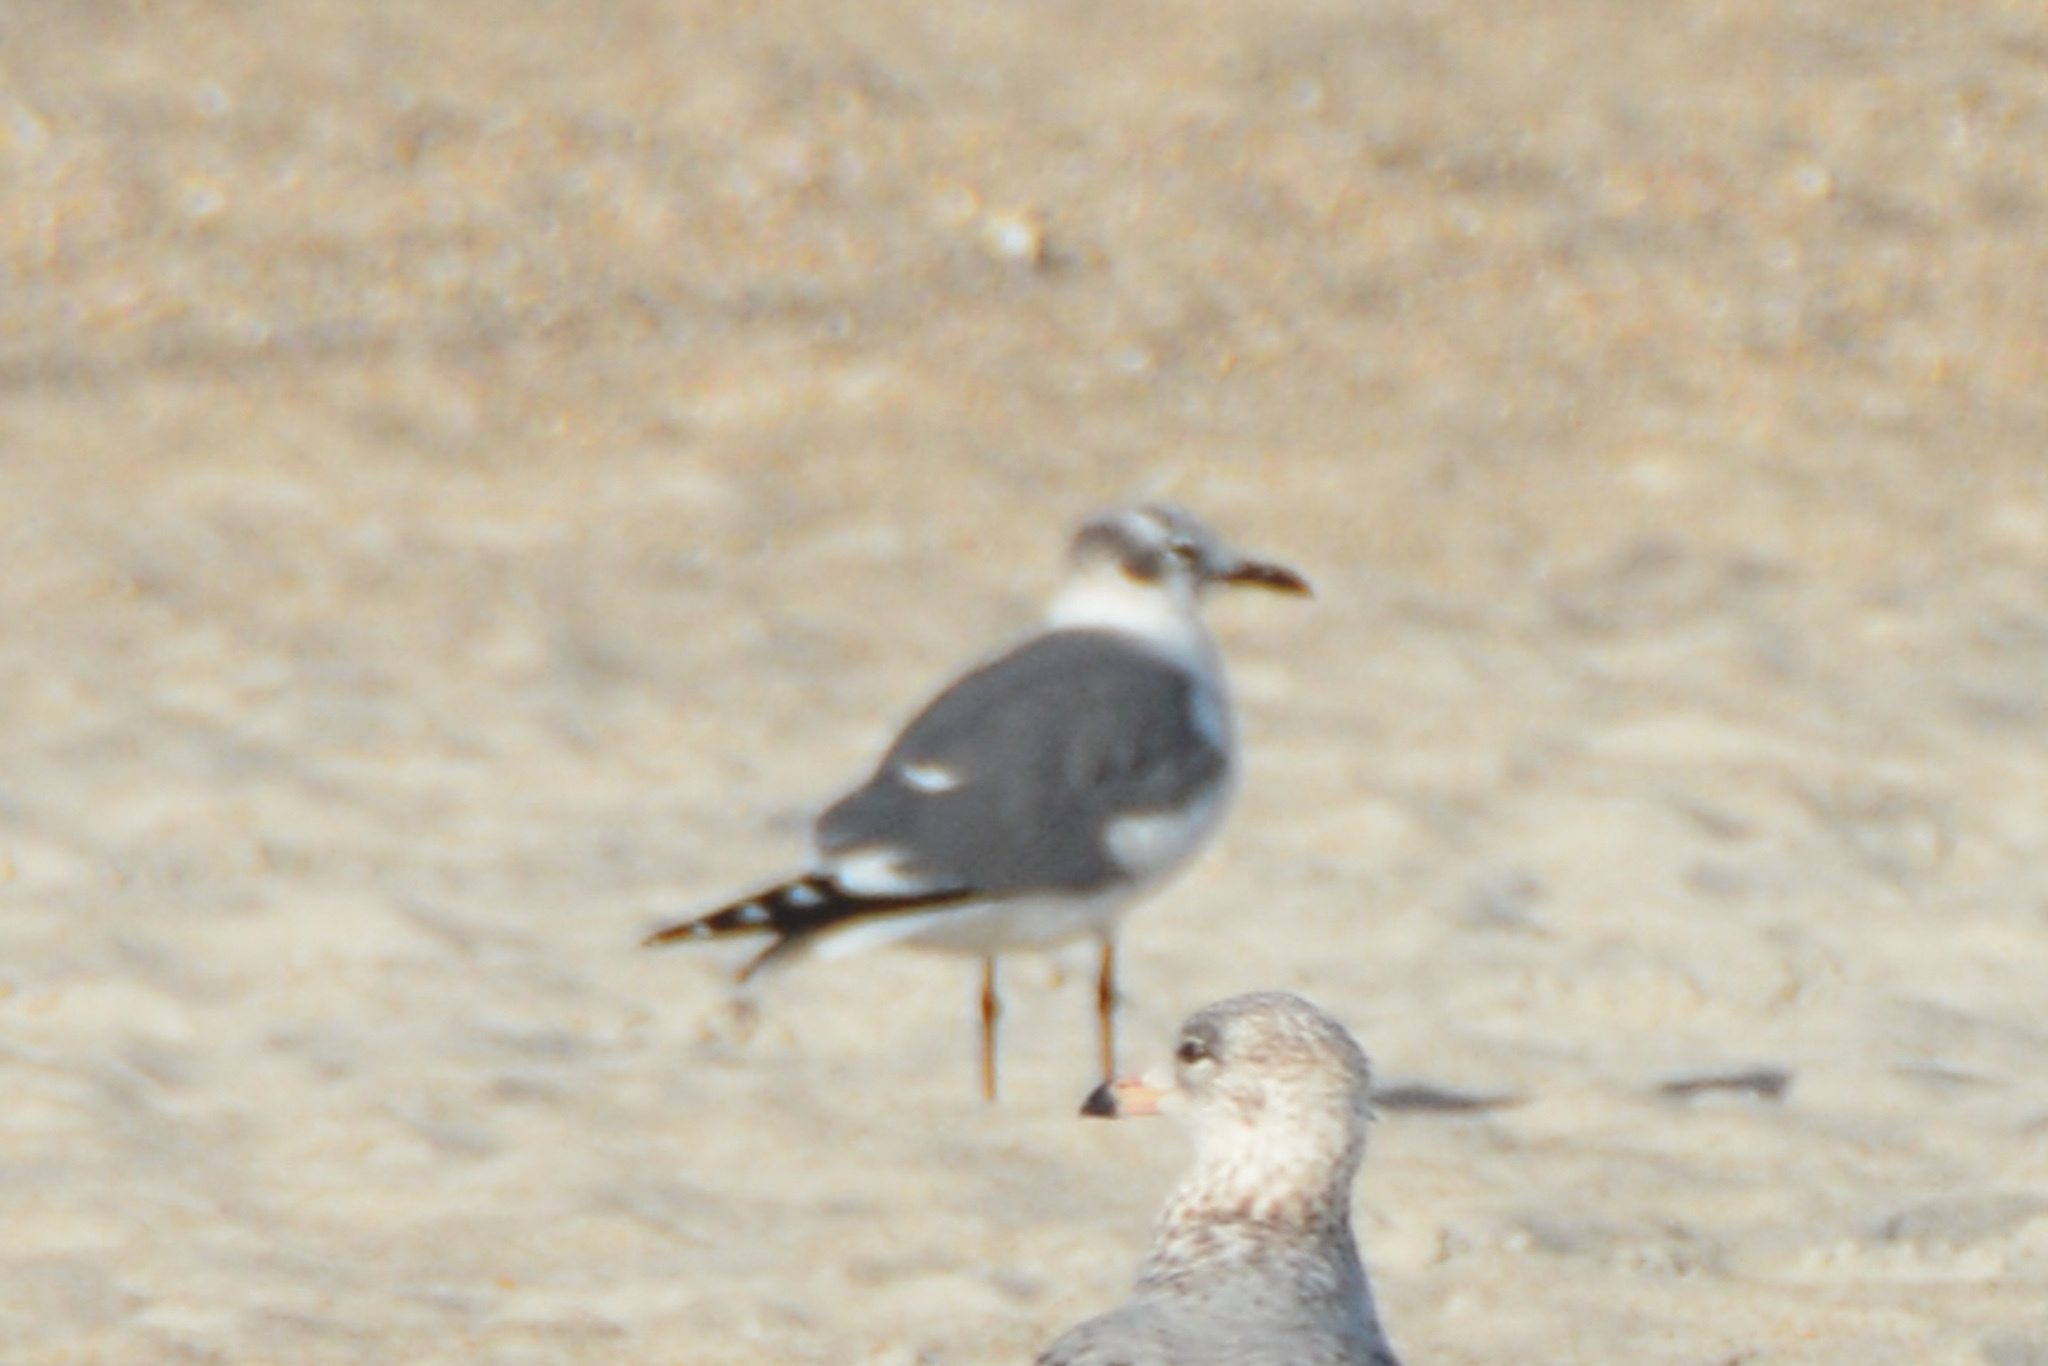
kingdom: Animalia
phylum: Chordata
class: Aves
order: Charadriiformes
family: Laridae
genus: Leucophaeus
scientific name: Leucophaeus atricilla
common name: Laughing gull
